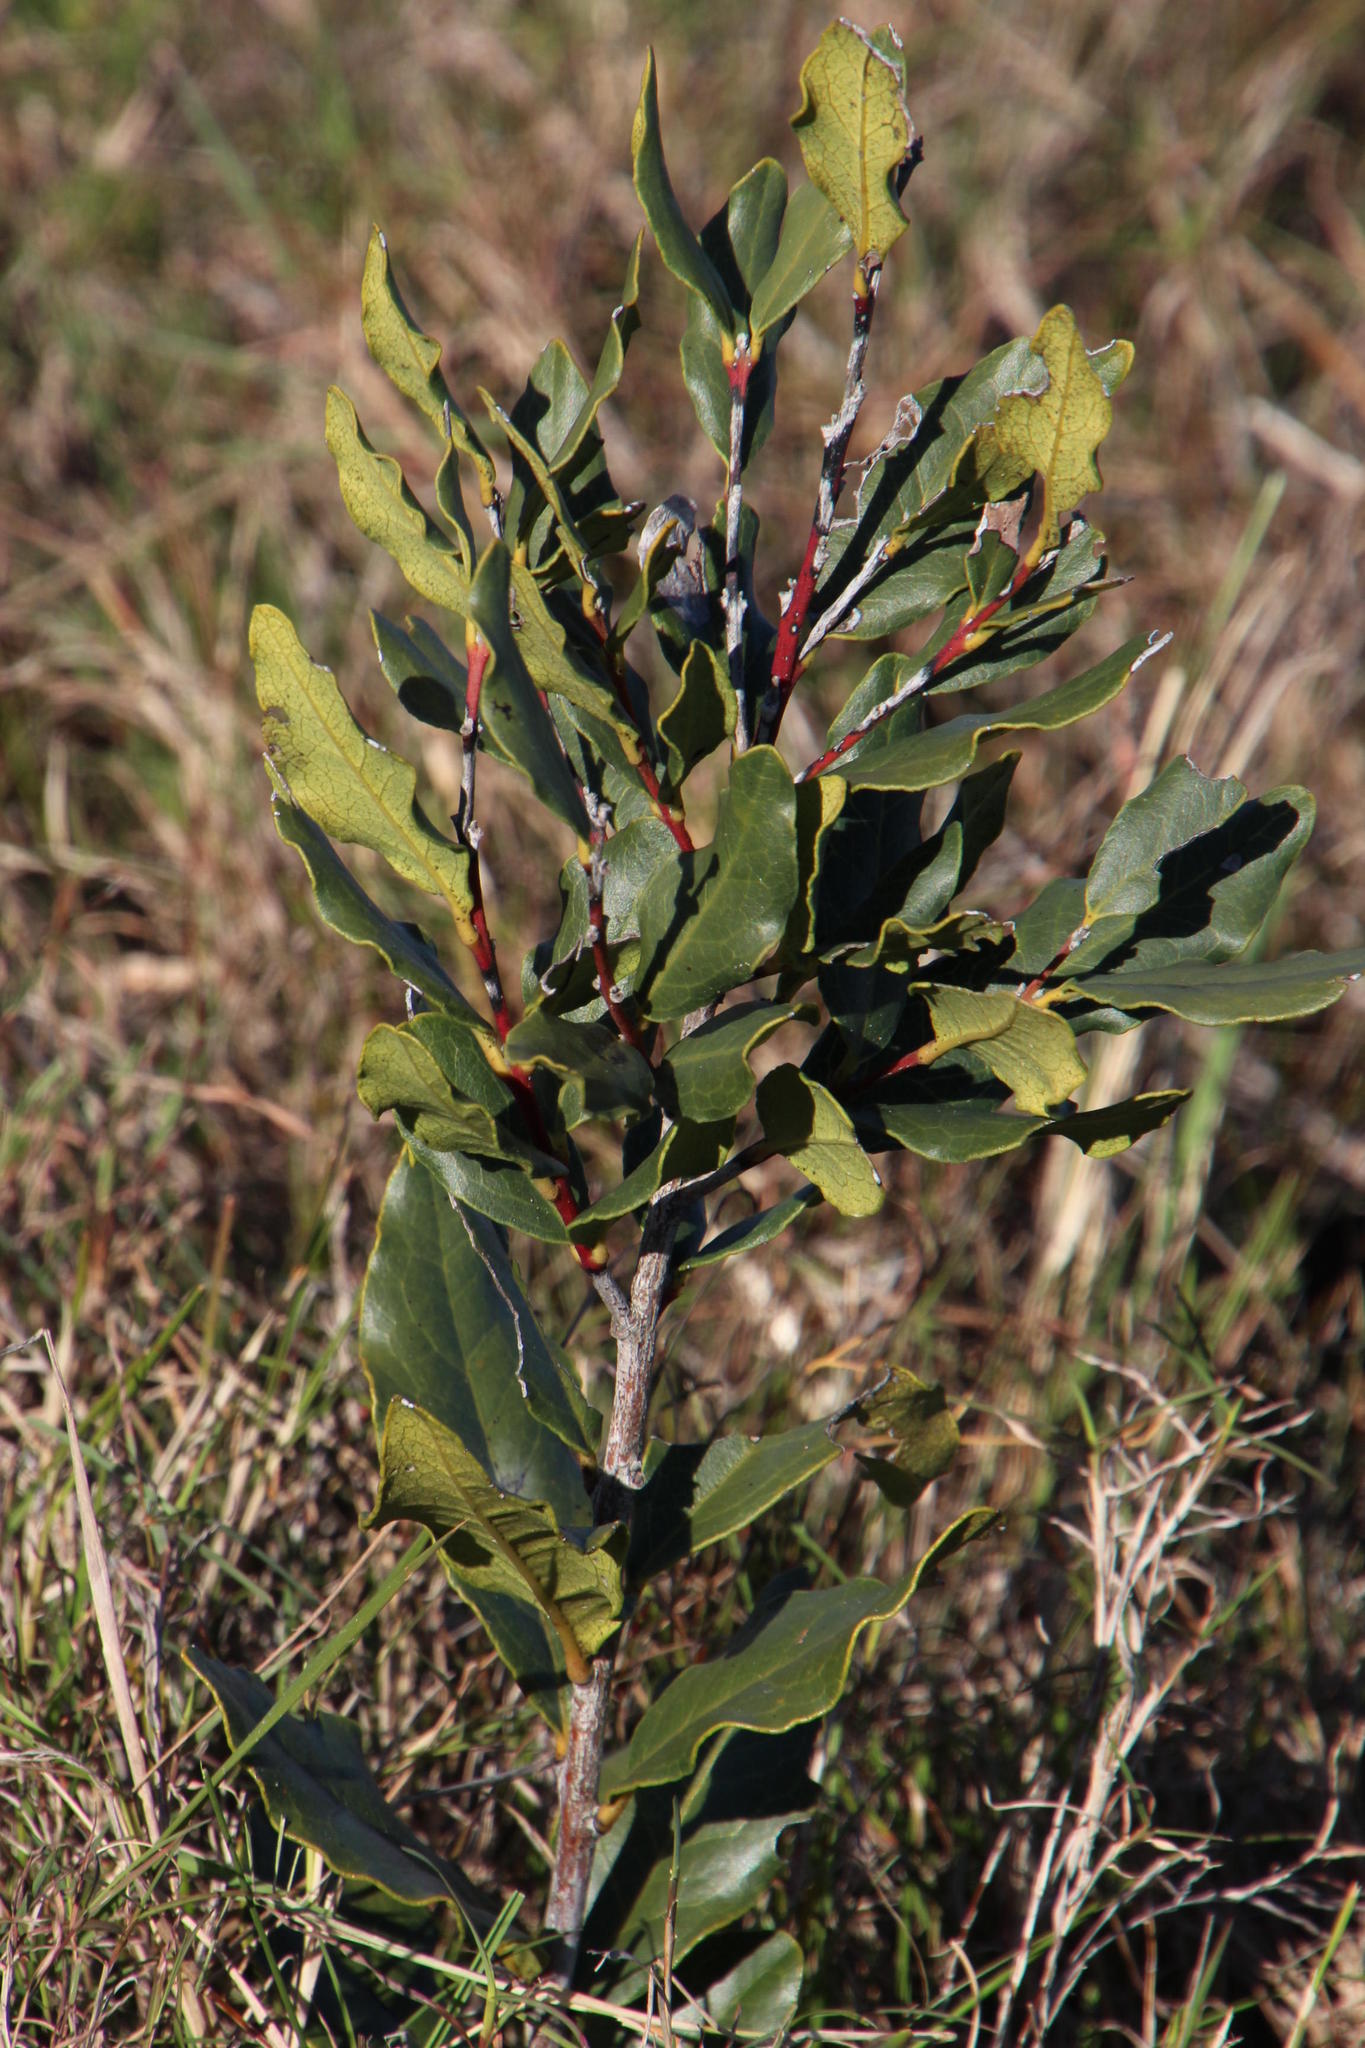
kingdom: Plantae
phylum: Tracheophyta
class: Magnoliopsida
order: Ericales
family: Ebenaceae
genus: Euclea
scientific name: Euclea racemosa
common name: Dune guarri
